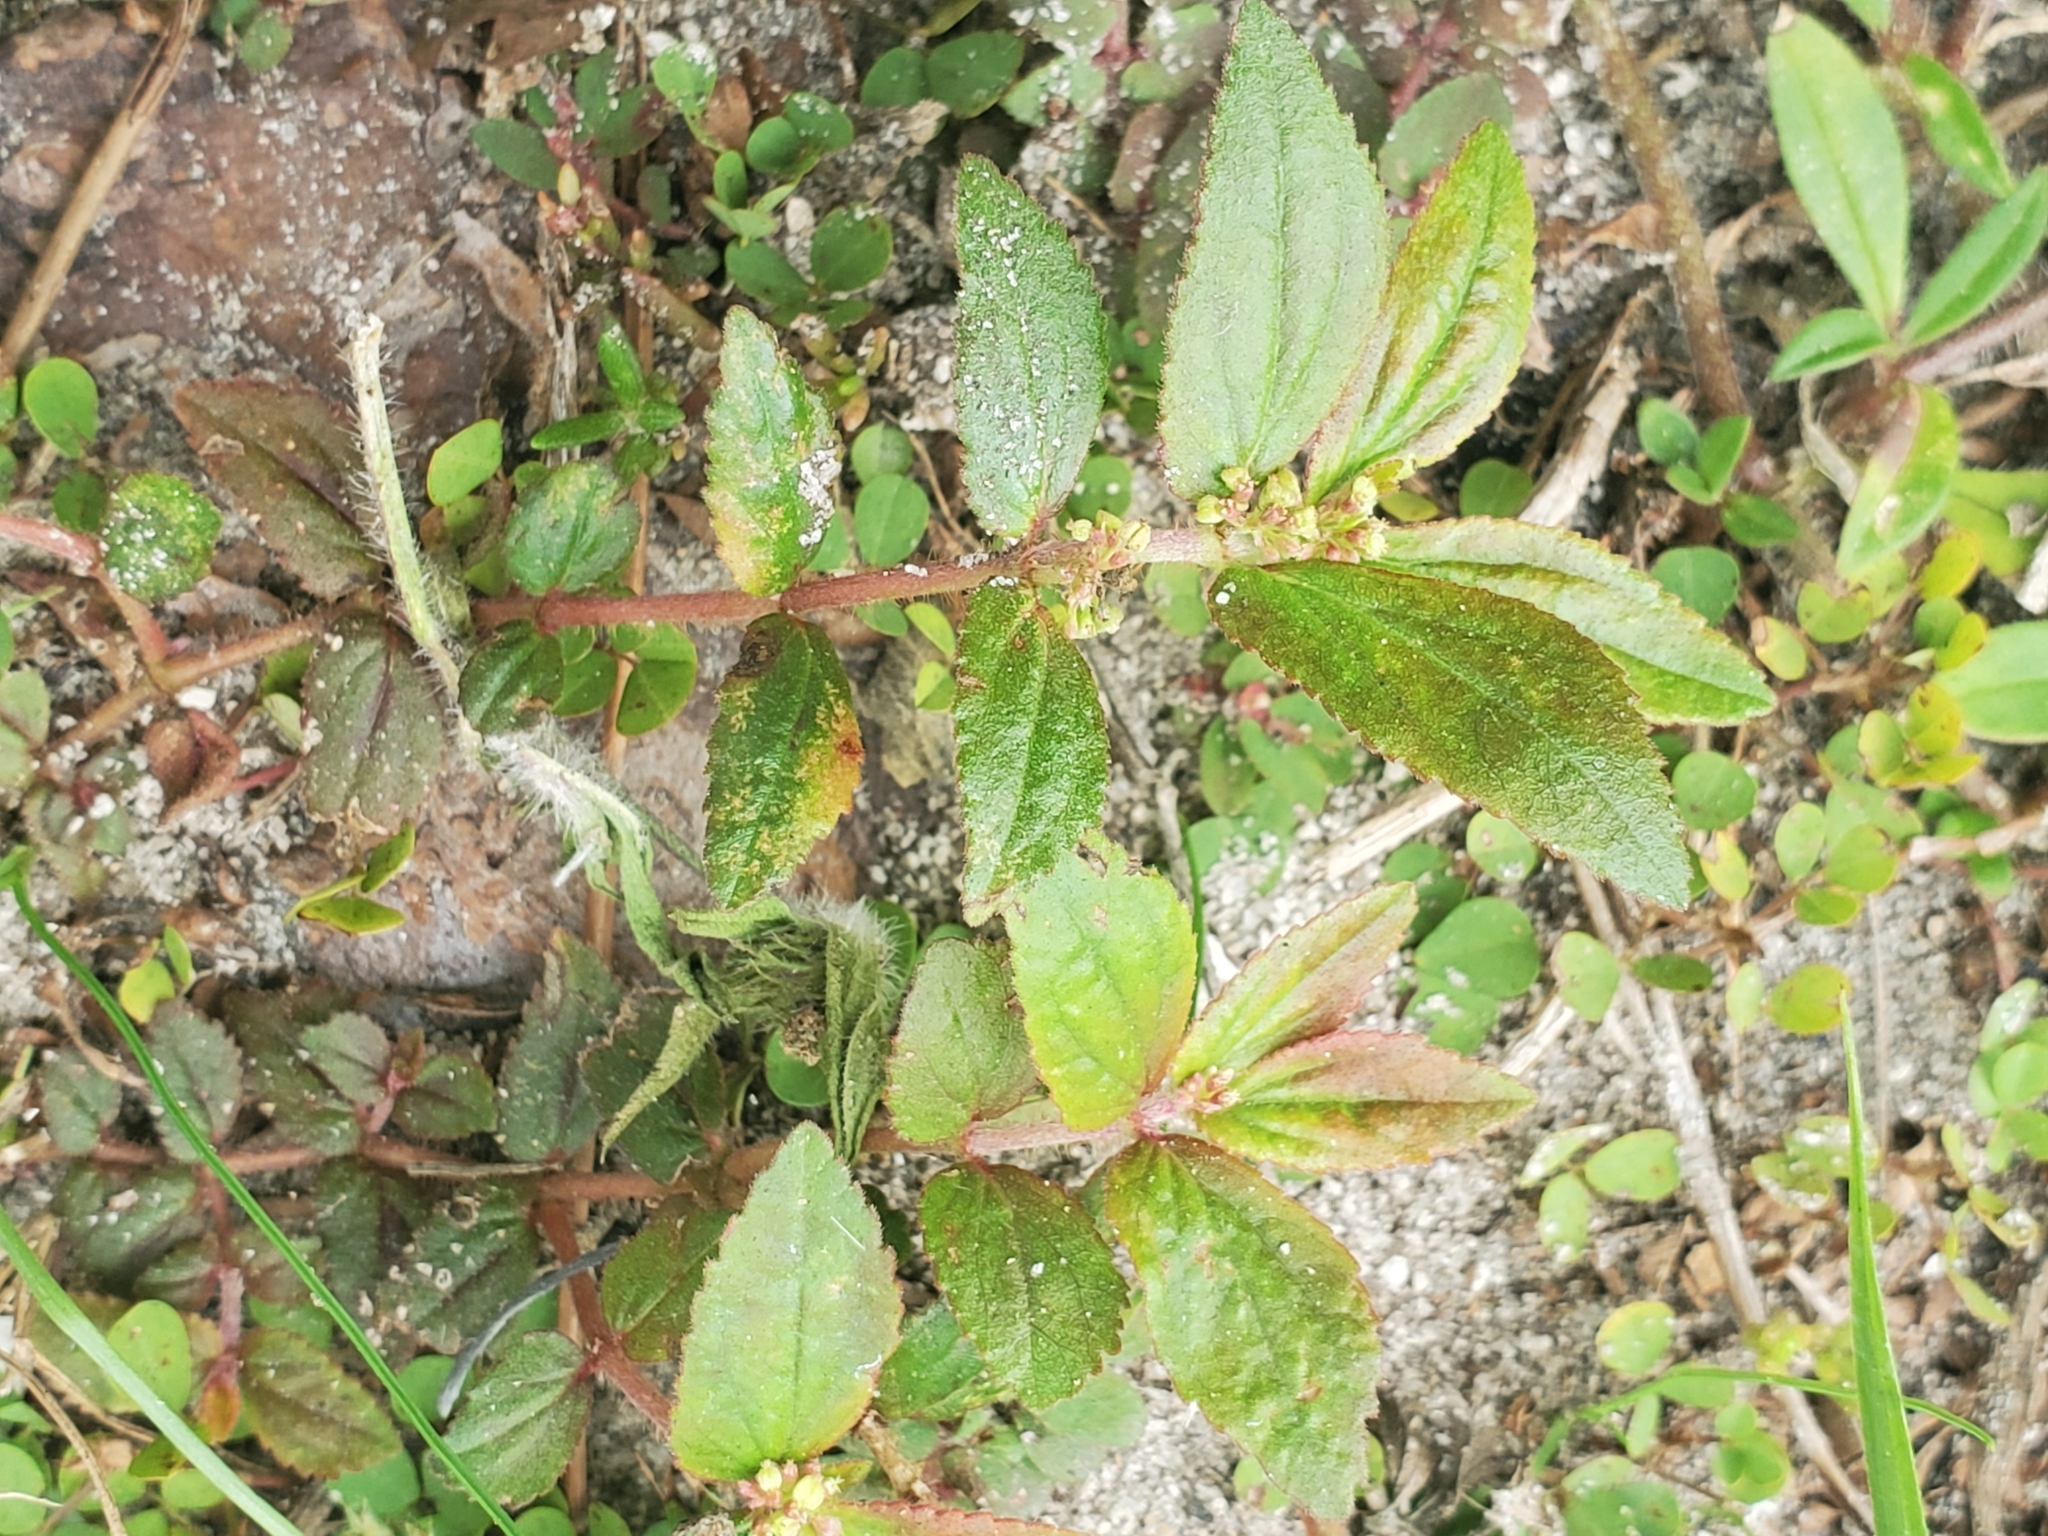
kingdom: Plantae
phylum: Tracheophyta
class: Magnoliopsida
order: Malpighiales
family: Euphorbiaceae
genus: Euphorbia
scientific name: Euphorbia hirta
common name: Pillpod sandmat
